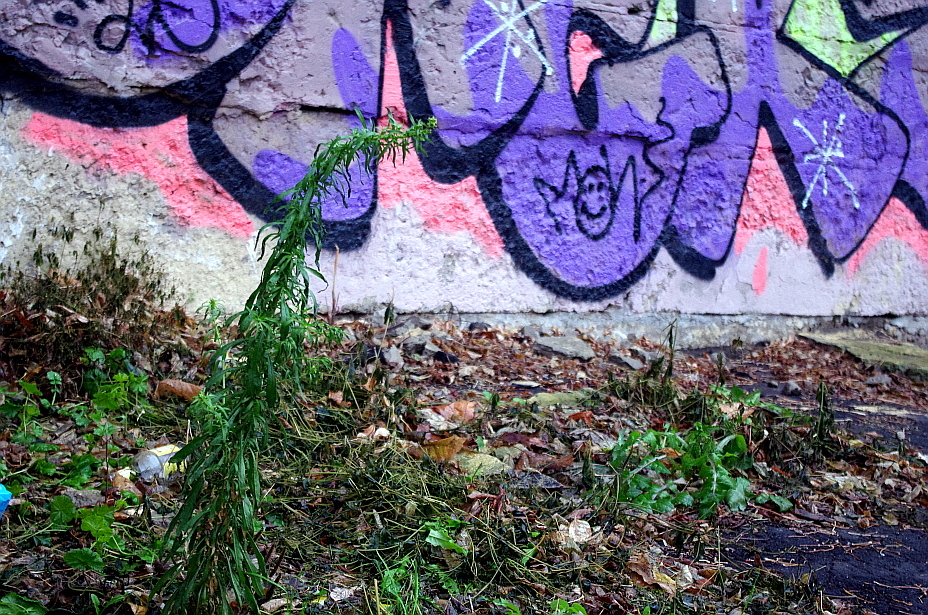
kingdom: Plantae
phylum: Tracheophyta
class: Magnoliopsida
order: Asterales
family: Asteraceae
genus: Erigeron
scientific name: Erigeron canadensis
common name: Canadian fleabane
